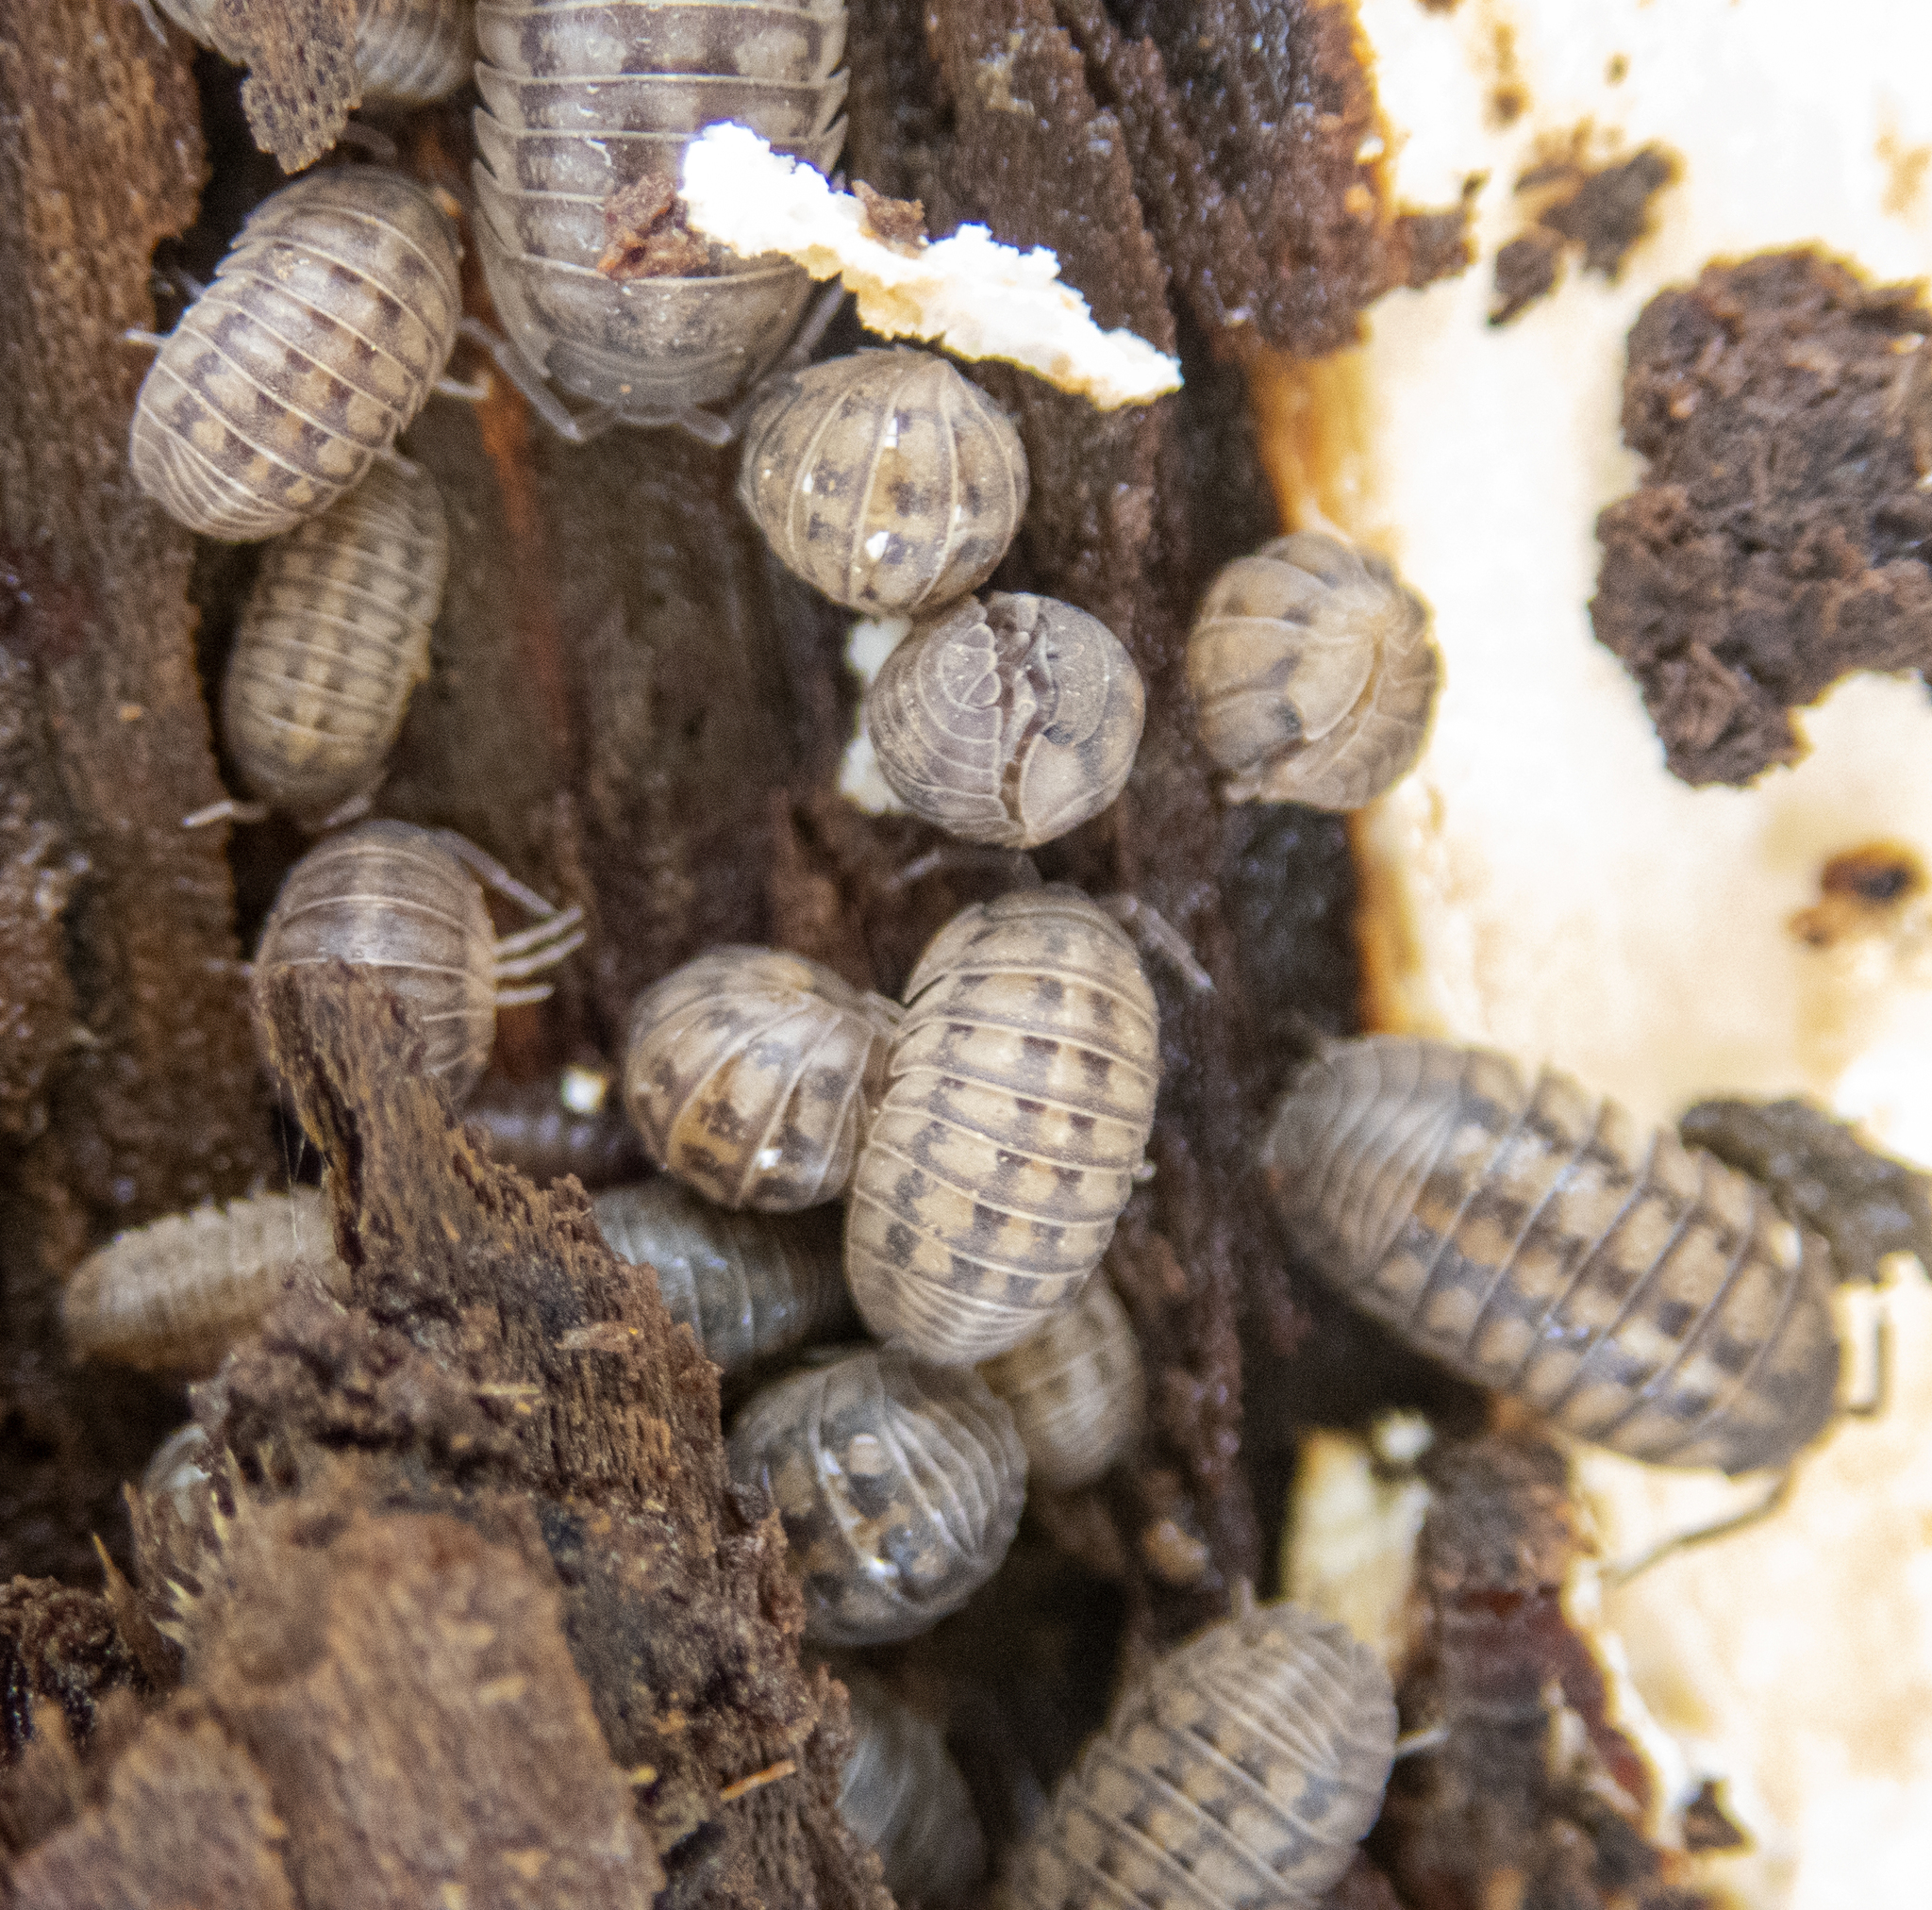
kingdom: Animalia
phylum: Arthropoda
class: Malacostraca
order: Isopoda
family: Armadillidiidae
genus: Armadillidium
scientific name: Armadillidium nasatum
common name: Isopod
